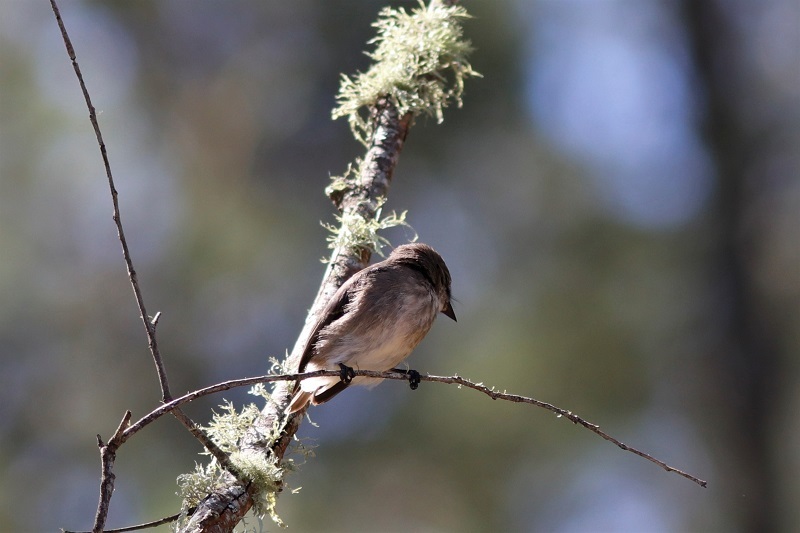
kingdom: Animalia
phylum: Chordata
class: Aves
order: Passeriformes
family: Muscicapidae
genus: Muscicapa
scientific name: Muscicapa adusta
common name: African dusky flycatcher
